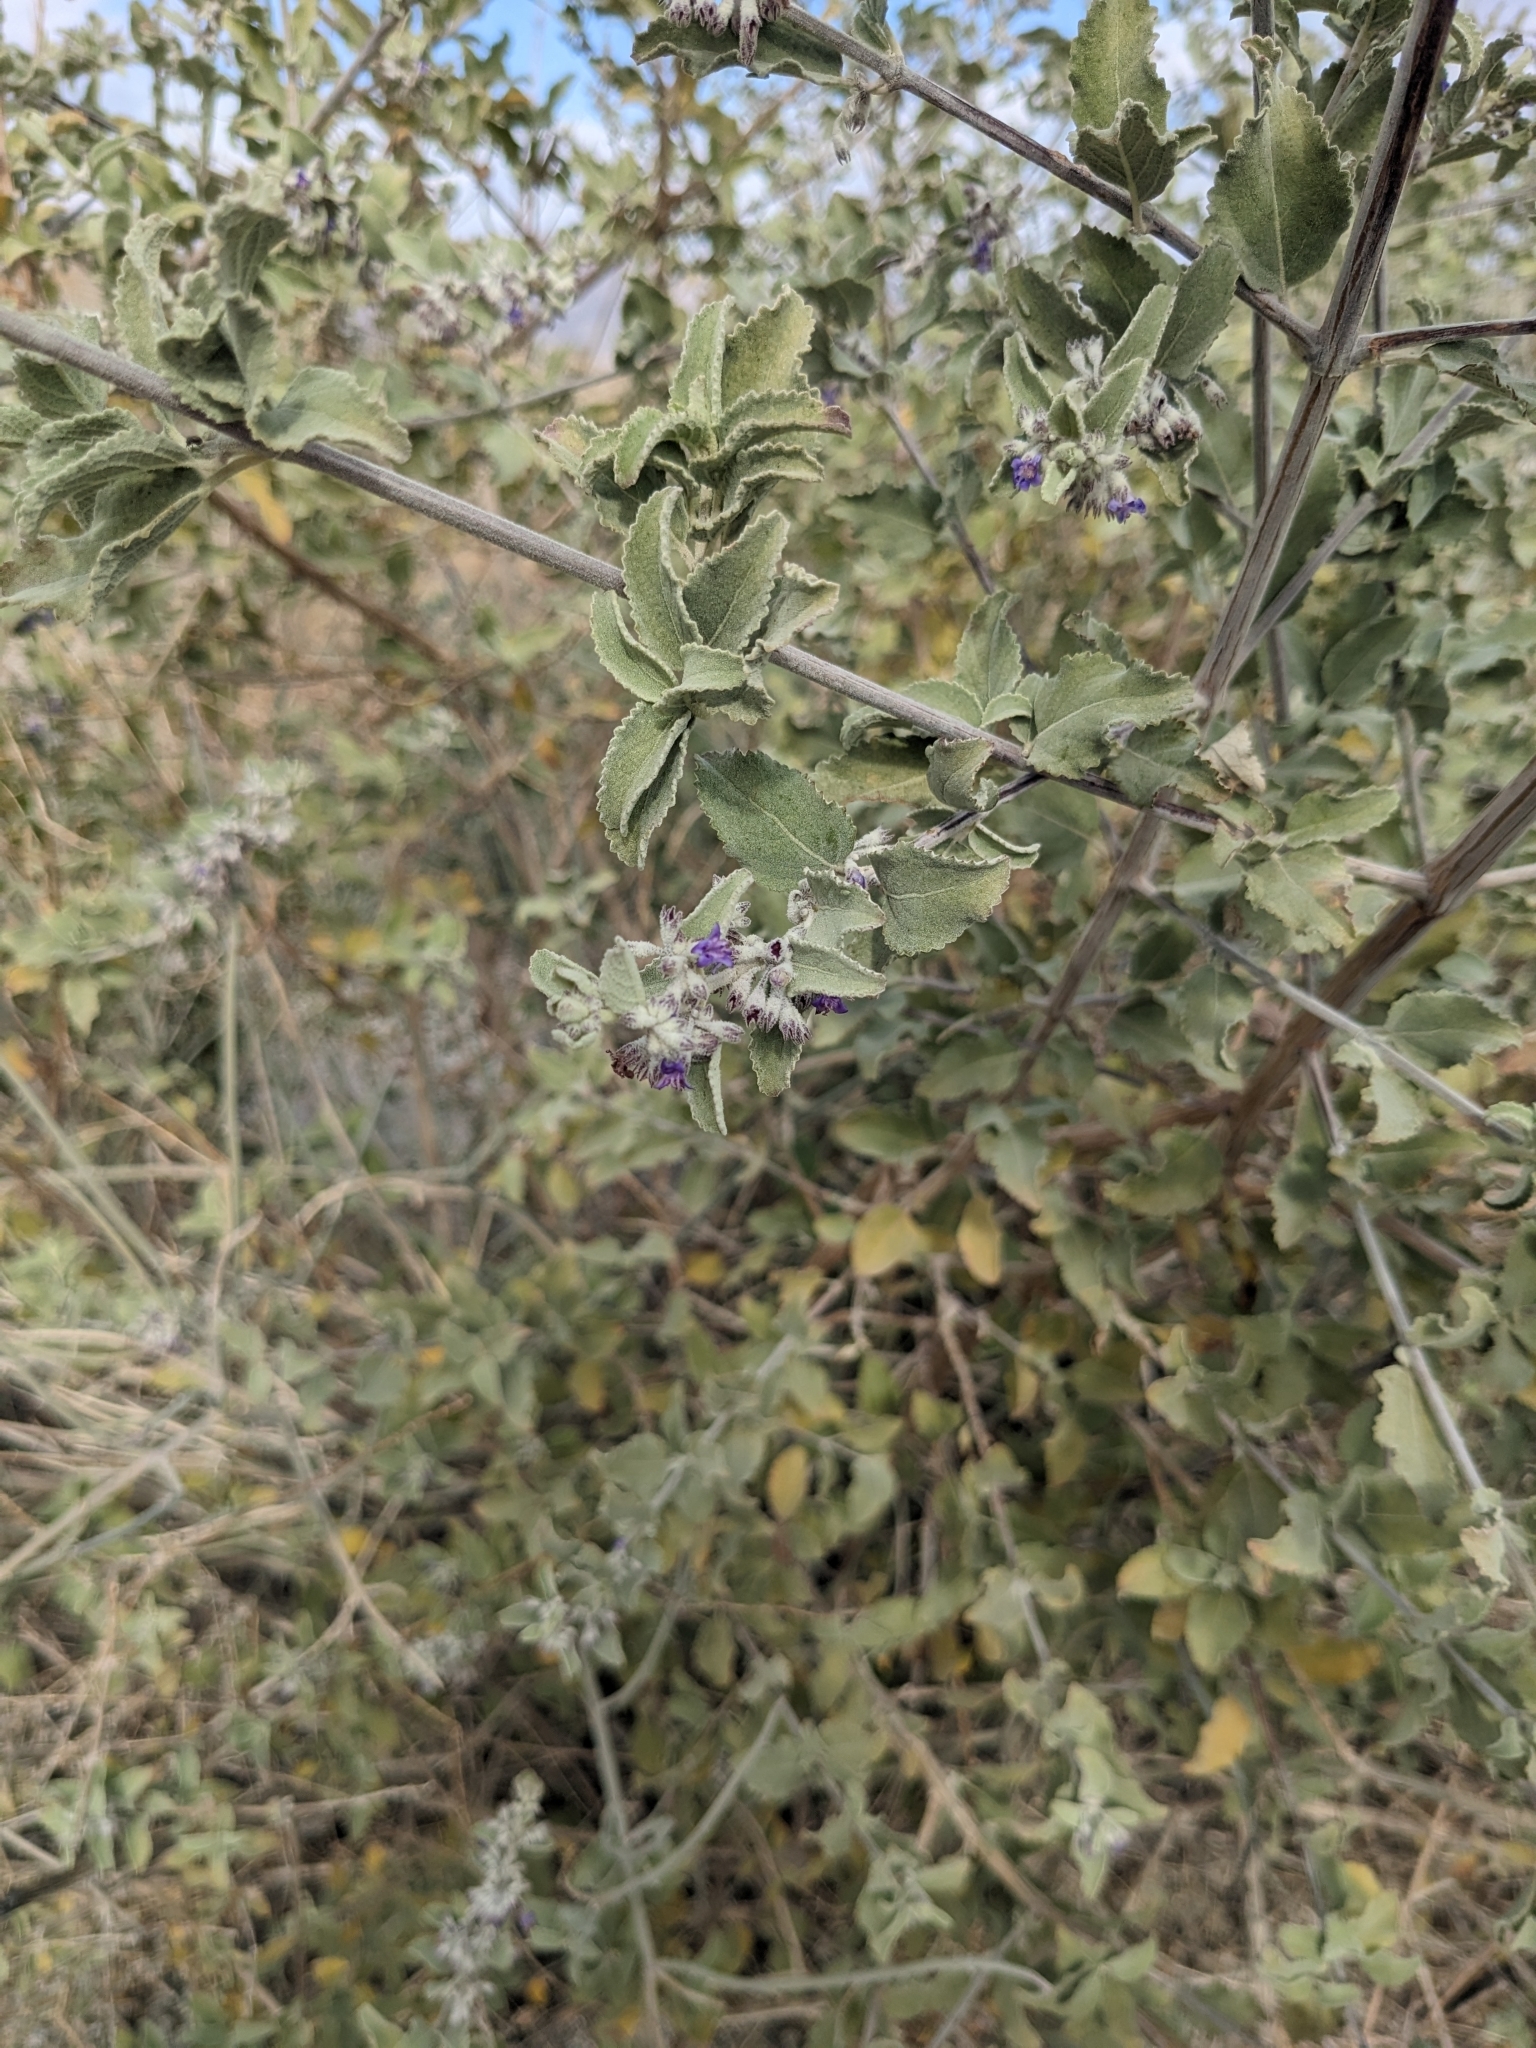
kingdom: Plantae
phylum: Tracheophyta
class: Magnoliopsida
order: Lamiales
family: Lamiaceae
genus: Condea
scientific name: Condea emoryi
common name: Chia
